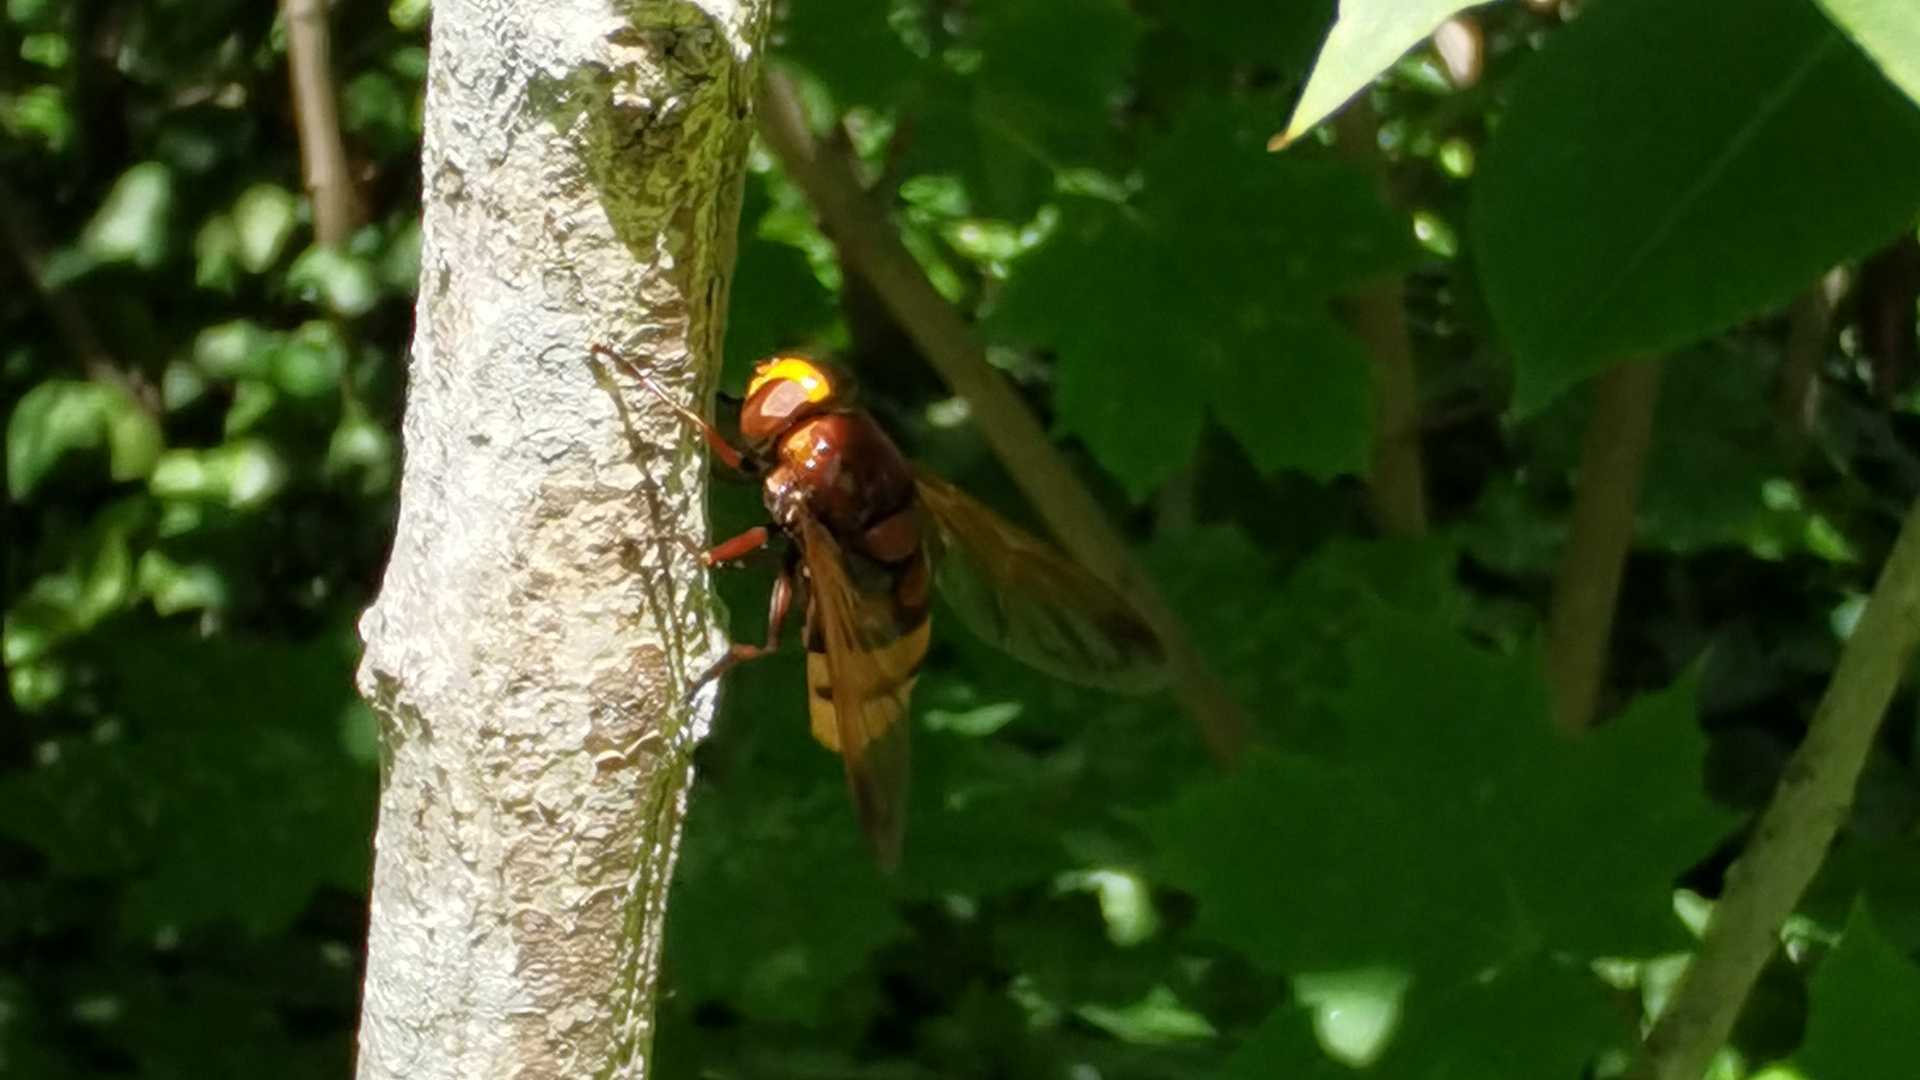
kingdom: Animalia
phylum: Arthropoda
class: Insecta
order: Diptera
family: Syrphidae
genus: Volucella
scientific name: Volucella zonaria
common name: Hornet hoverfly
